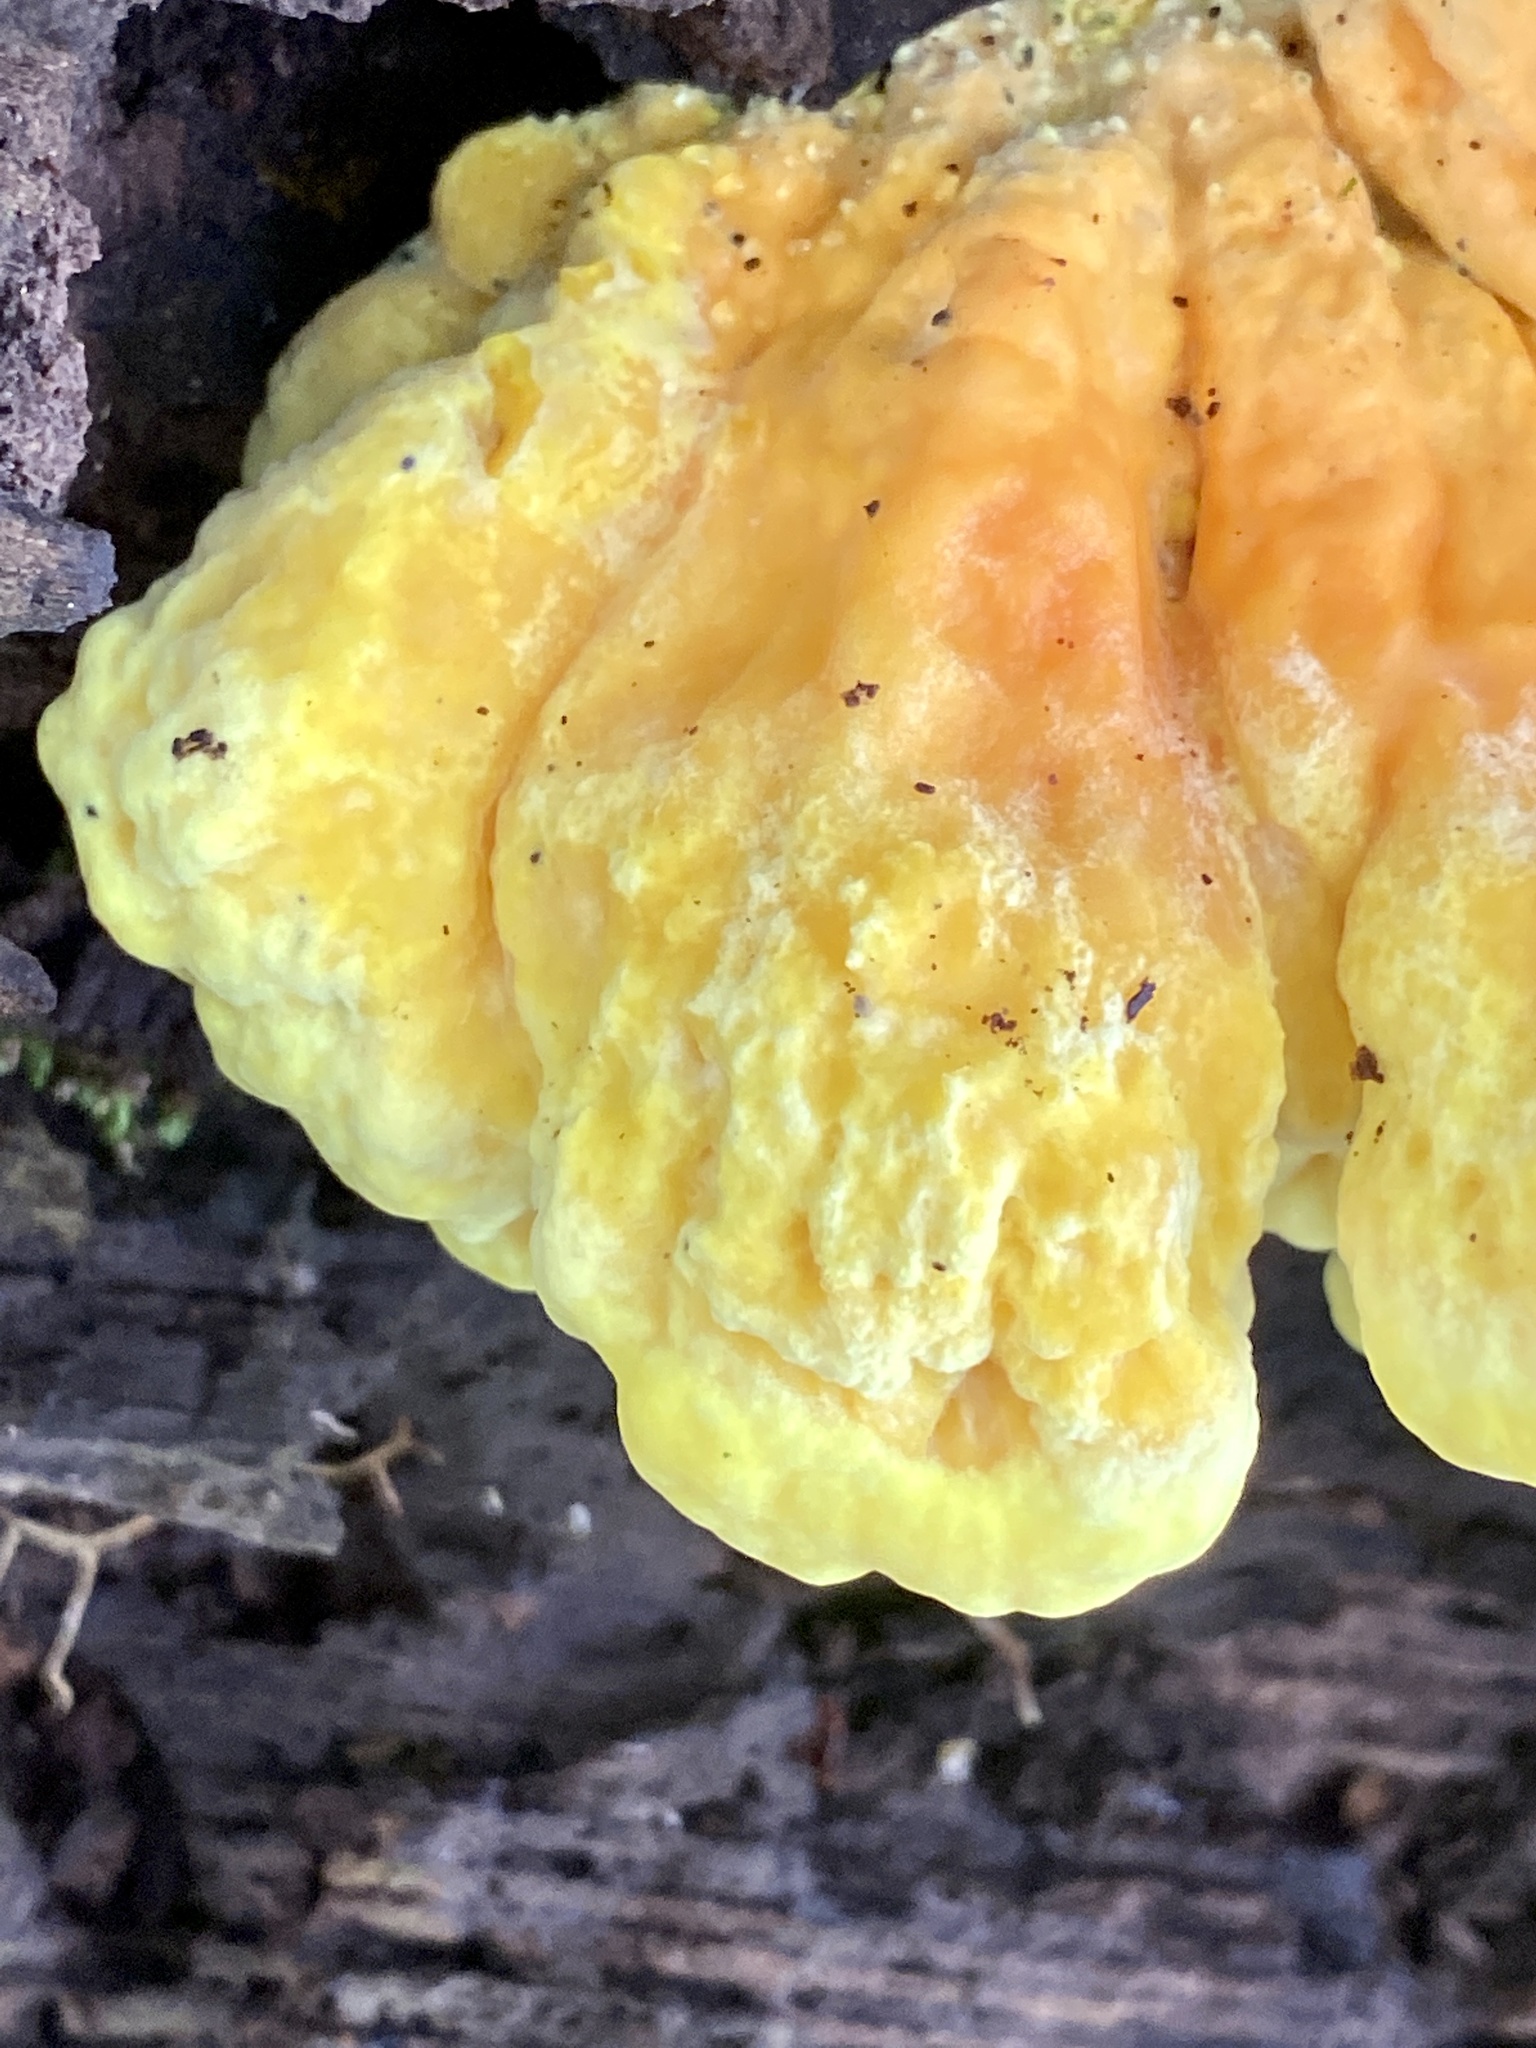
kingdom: Fungi
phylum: Basidiomycota
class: Agaricomycetes
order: Polyporales
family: Laetiporaceae
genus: Laetiporus
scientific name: Laetiporus sulphureus
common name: Chicken of the woods
